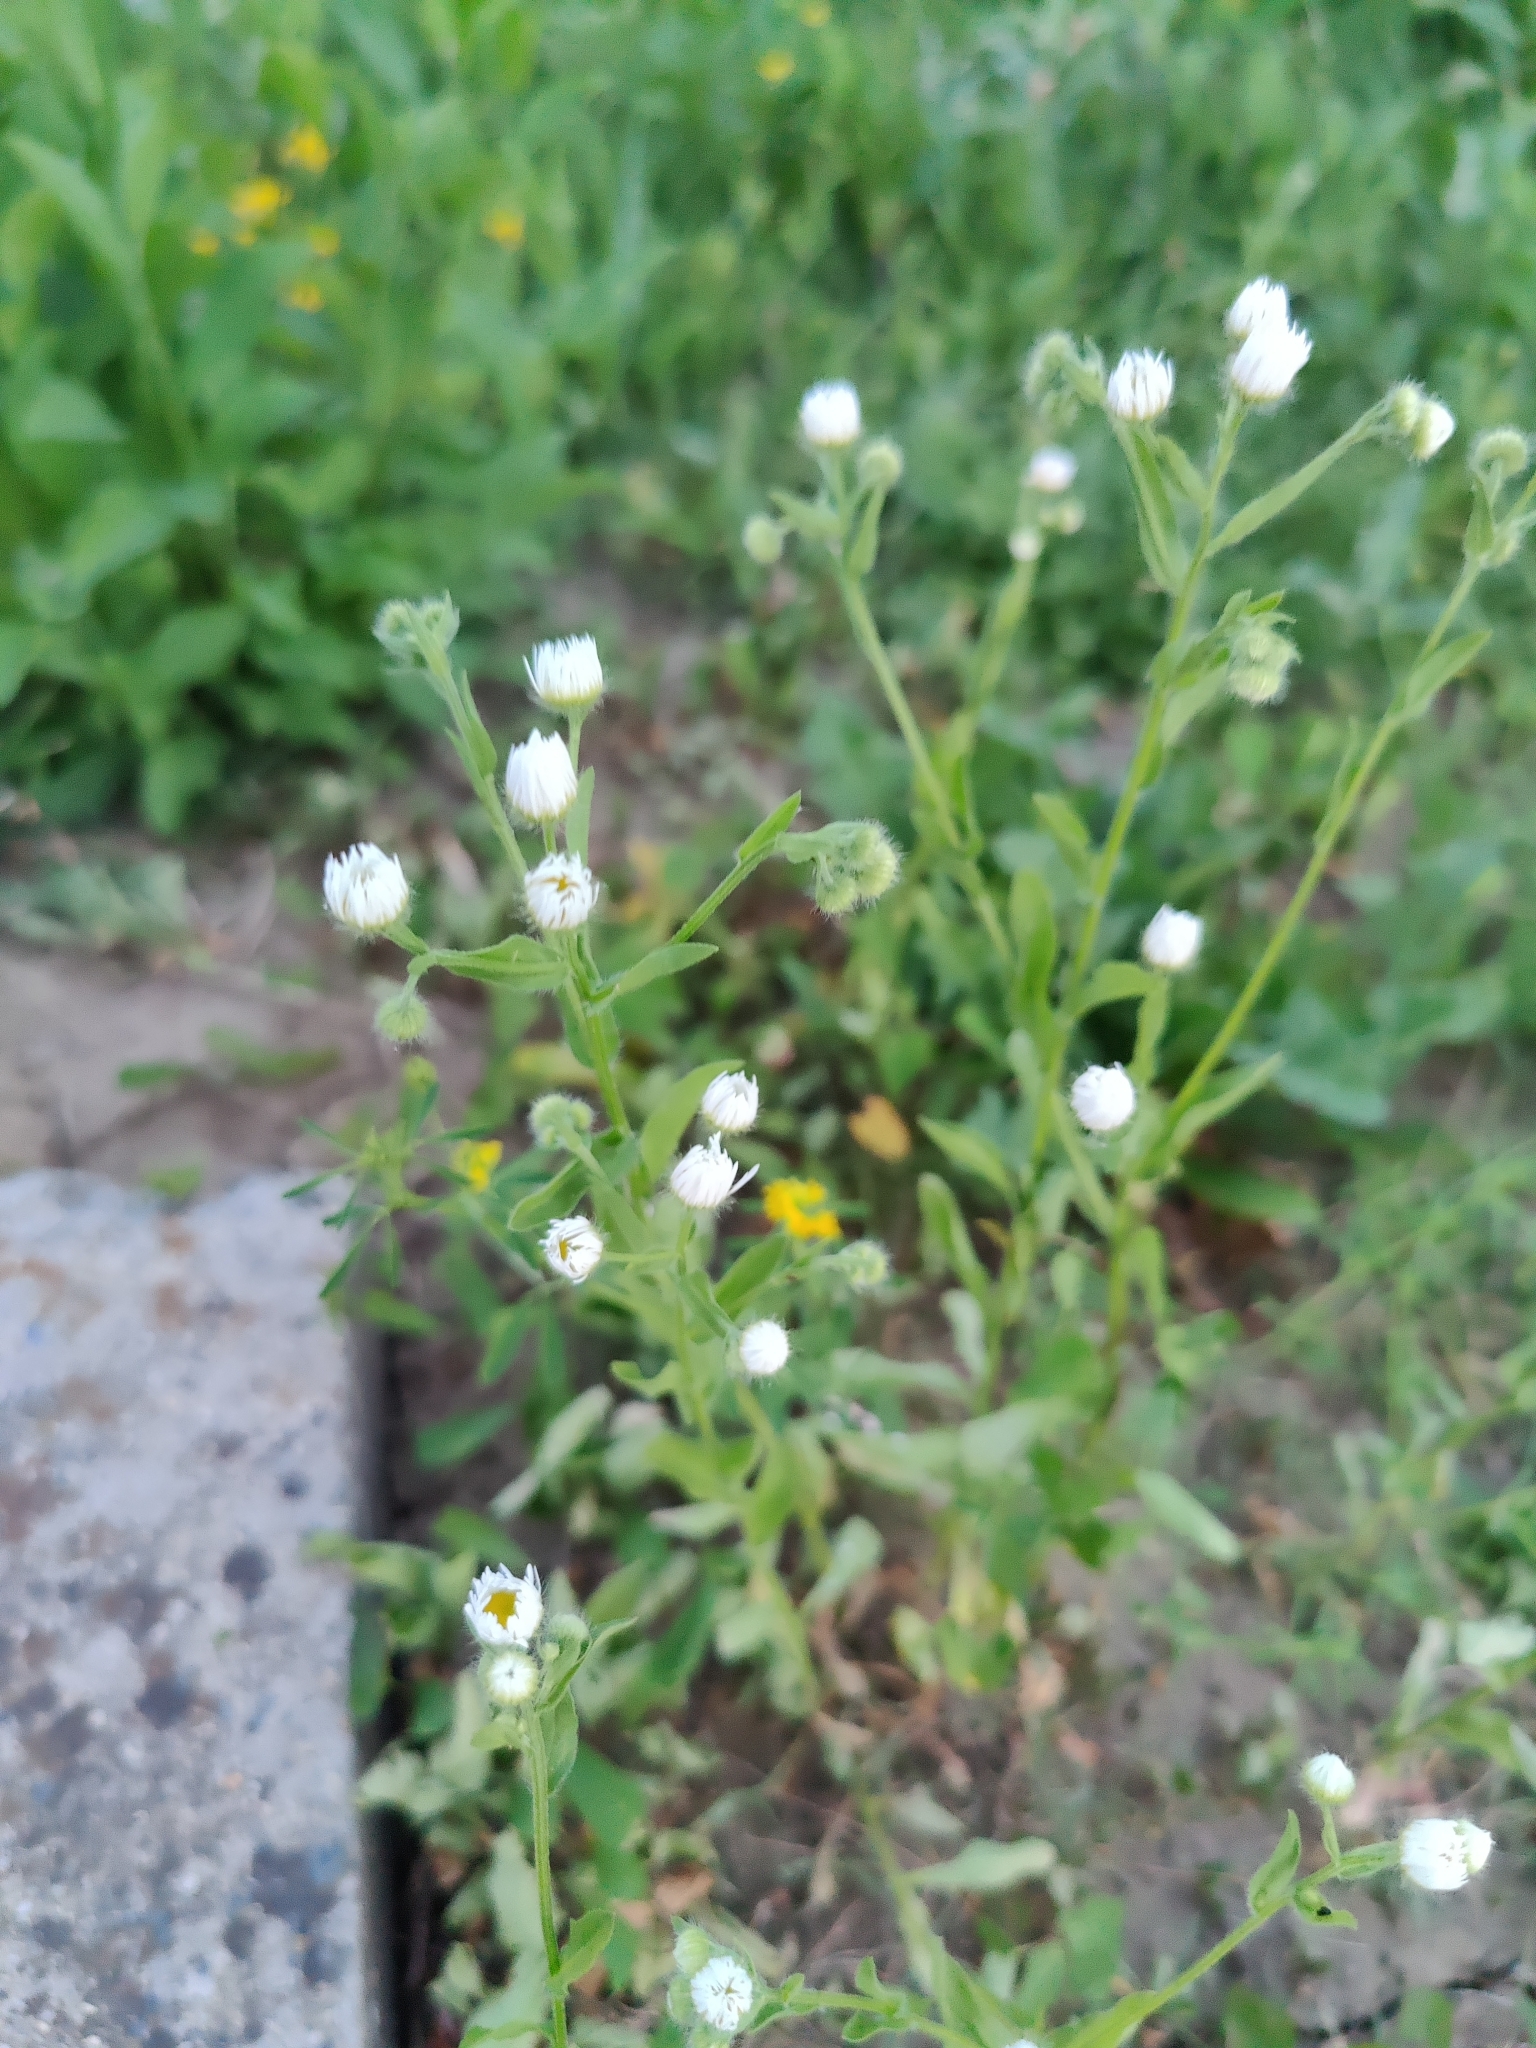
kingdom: Plantae
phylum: Tracheophyta
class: Magnoliopsida
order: Asterales
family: Asteraceae
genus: Erigeron
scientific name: Erigeron annuus
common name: Tall fleabane
